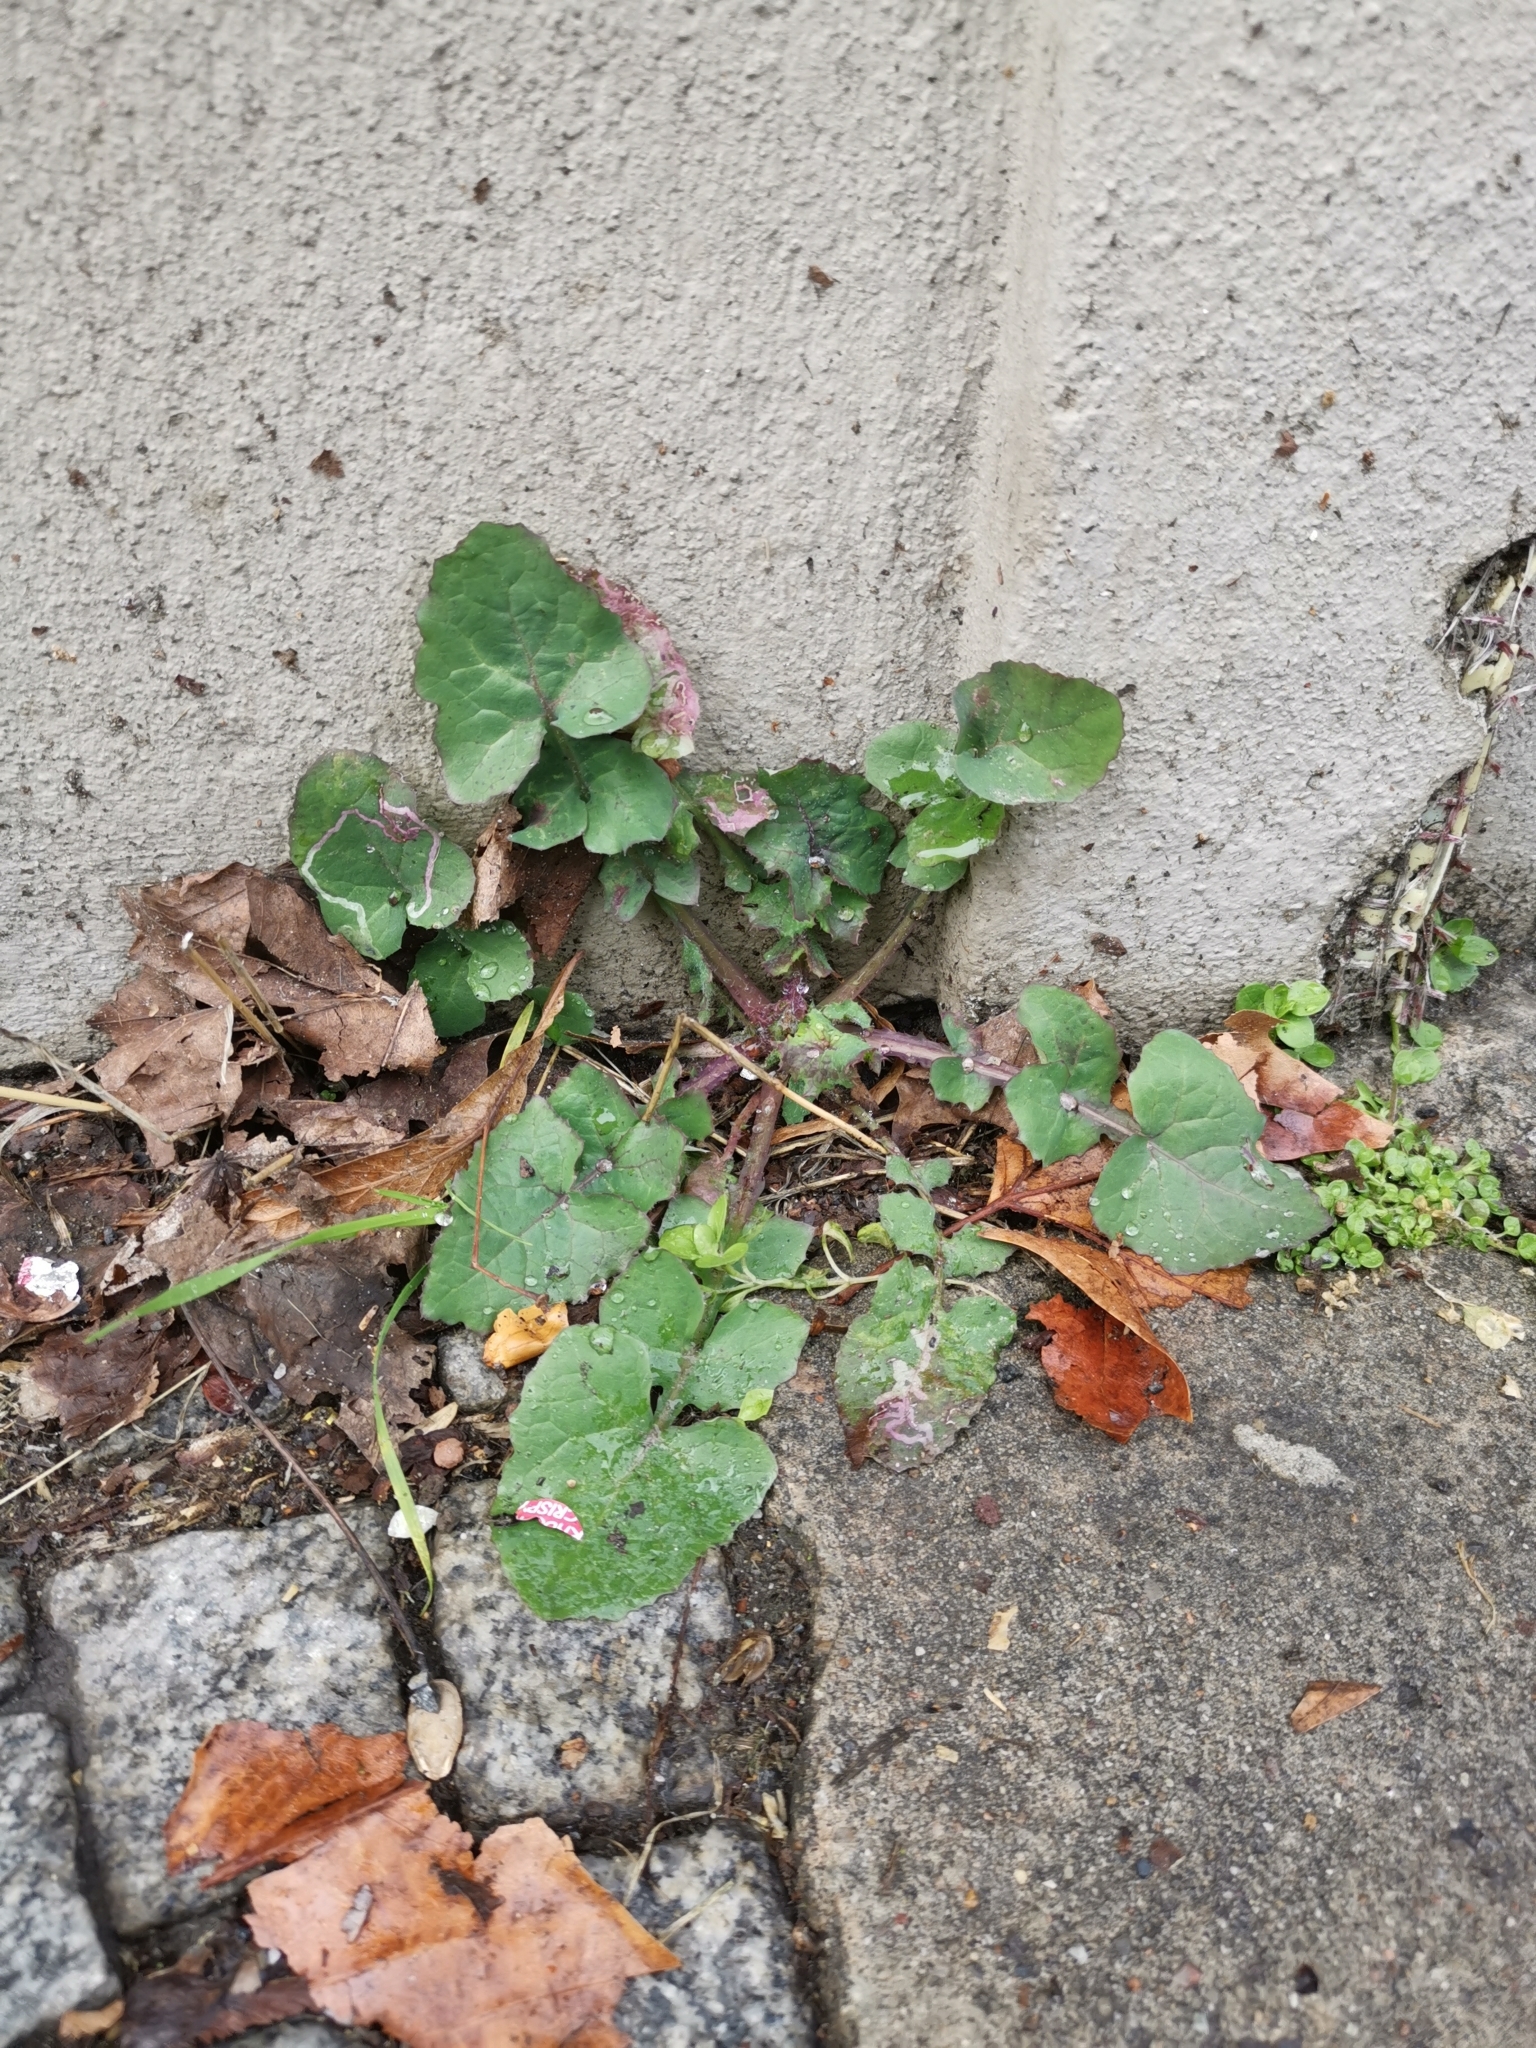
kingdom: Plantae
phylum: Tracheophyta
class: Magnoliopsida
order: Asterales
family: Asteraceae
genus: Sonchus
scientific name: Sonchus oleraceus
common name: Common sowthistle
